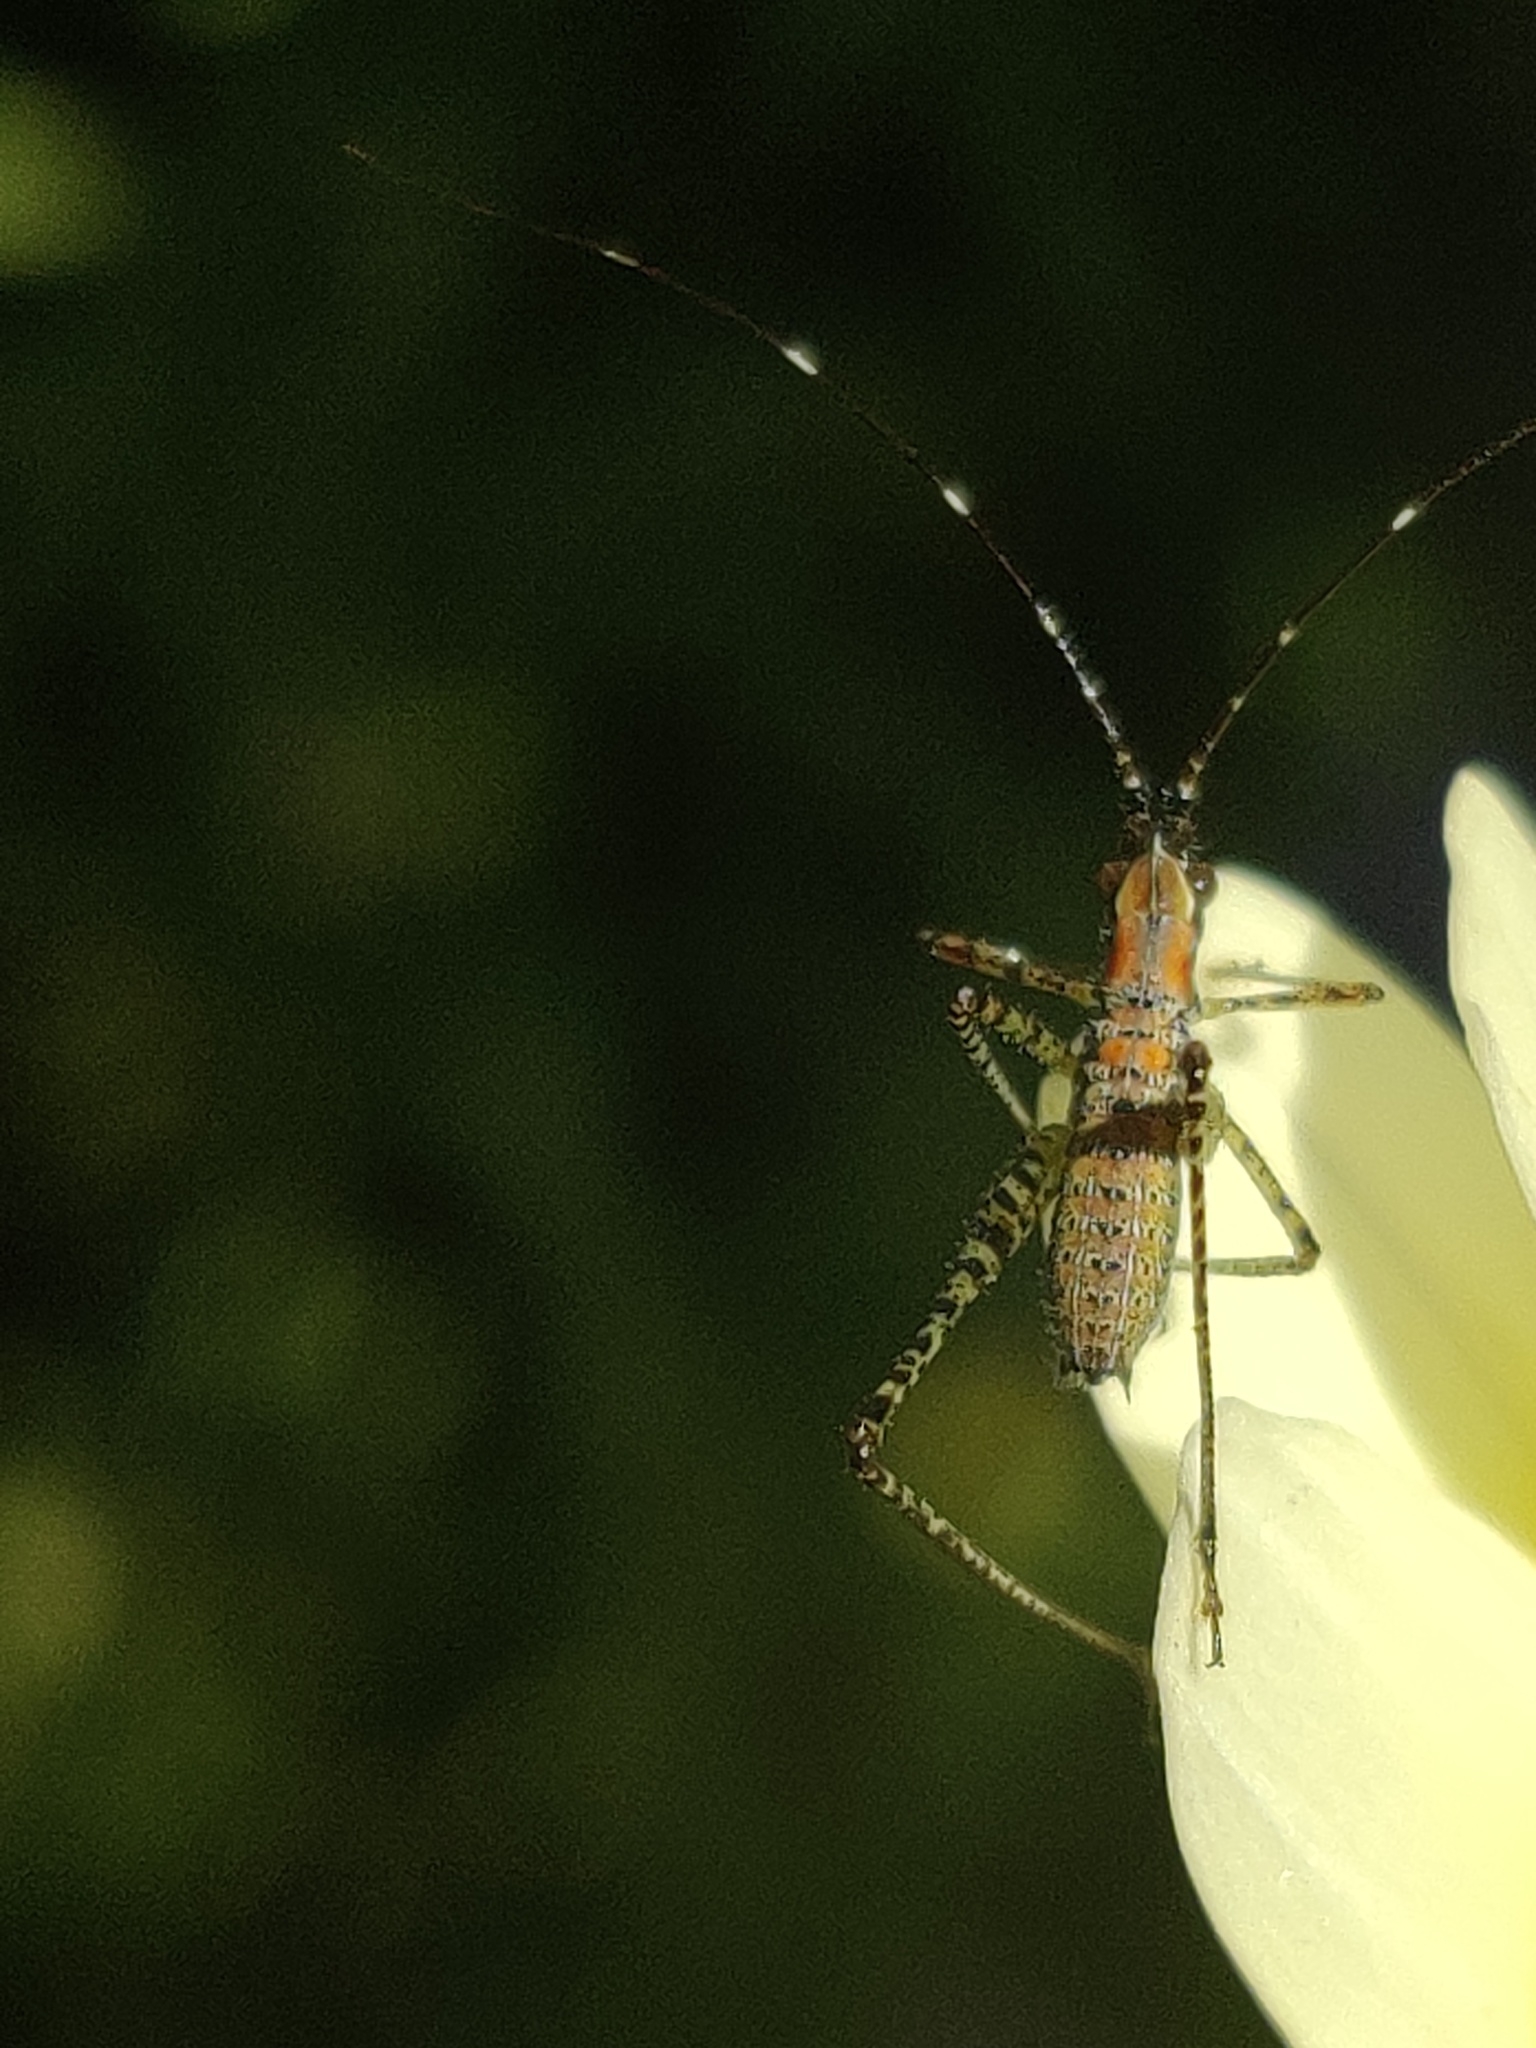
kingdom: Animalia
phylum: Arthropoda
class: Insecta
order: Orthoptera
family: Tettigoniidae
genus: Scudderia
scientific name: Scudderia
